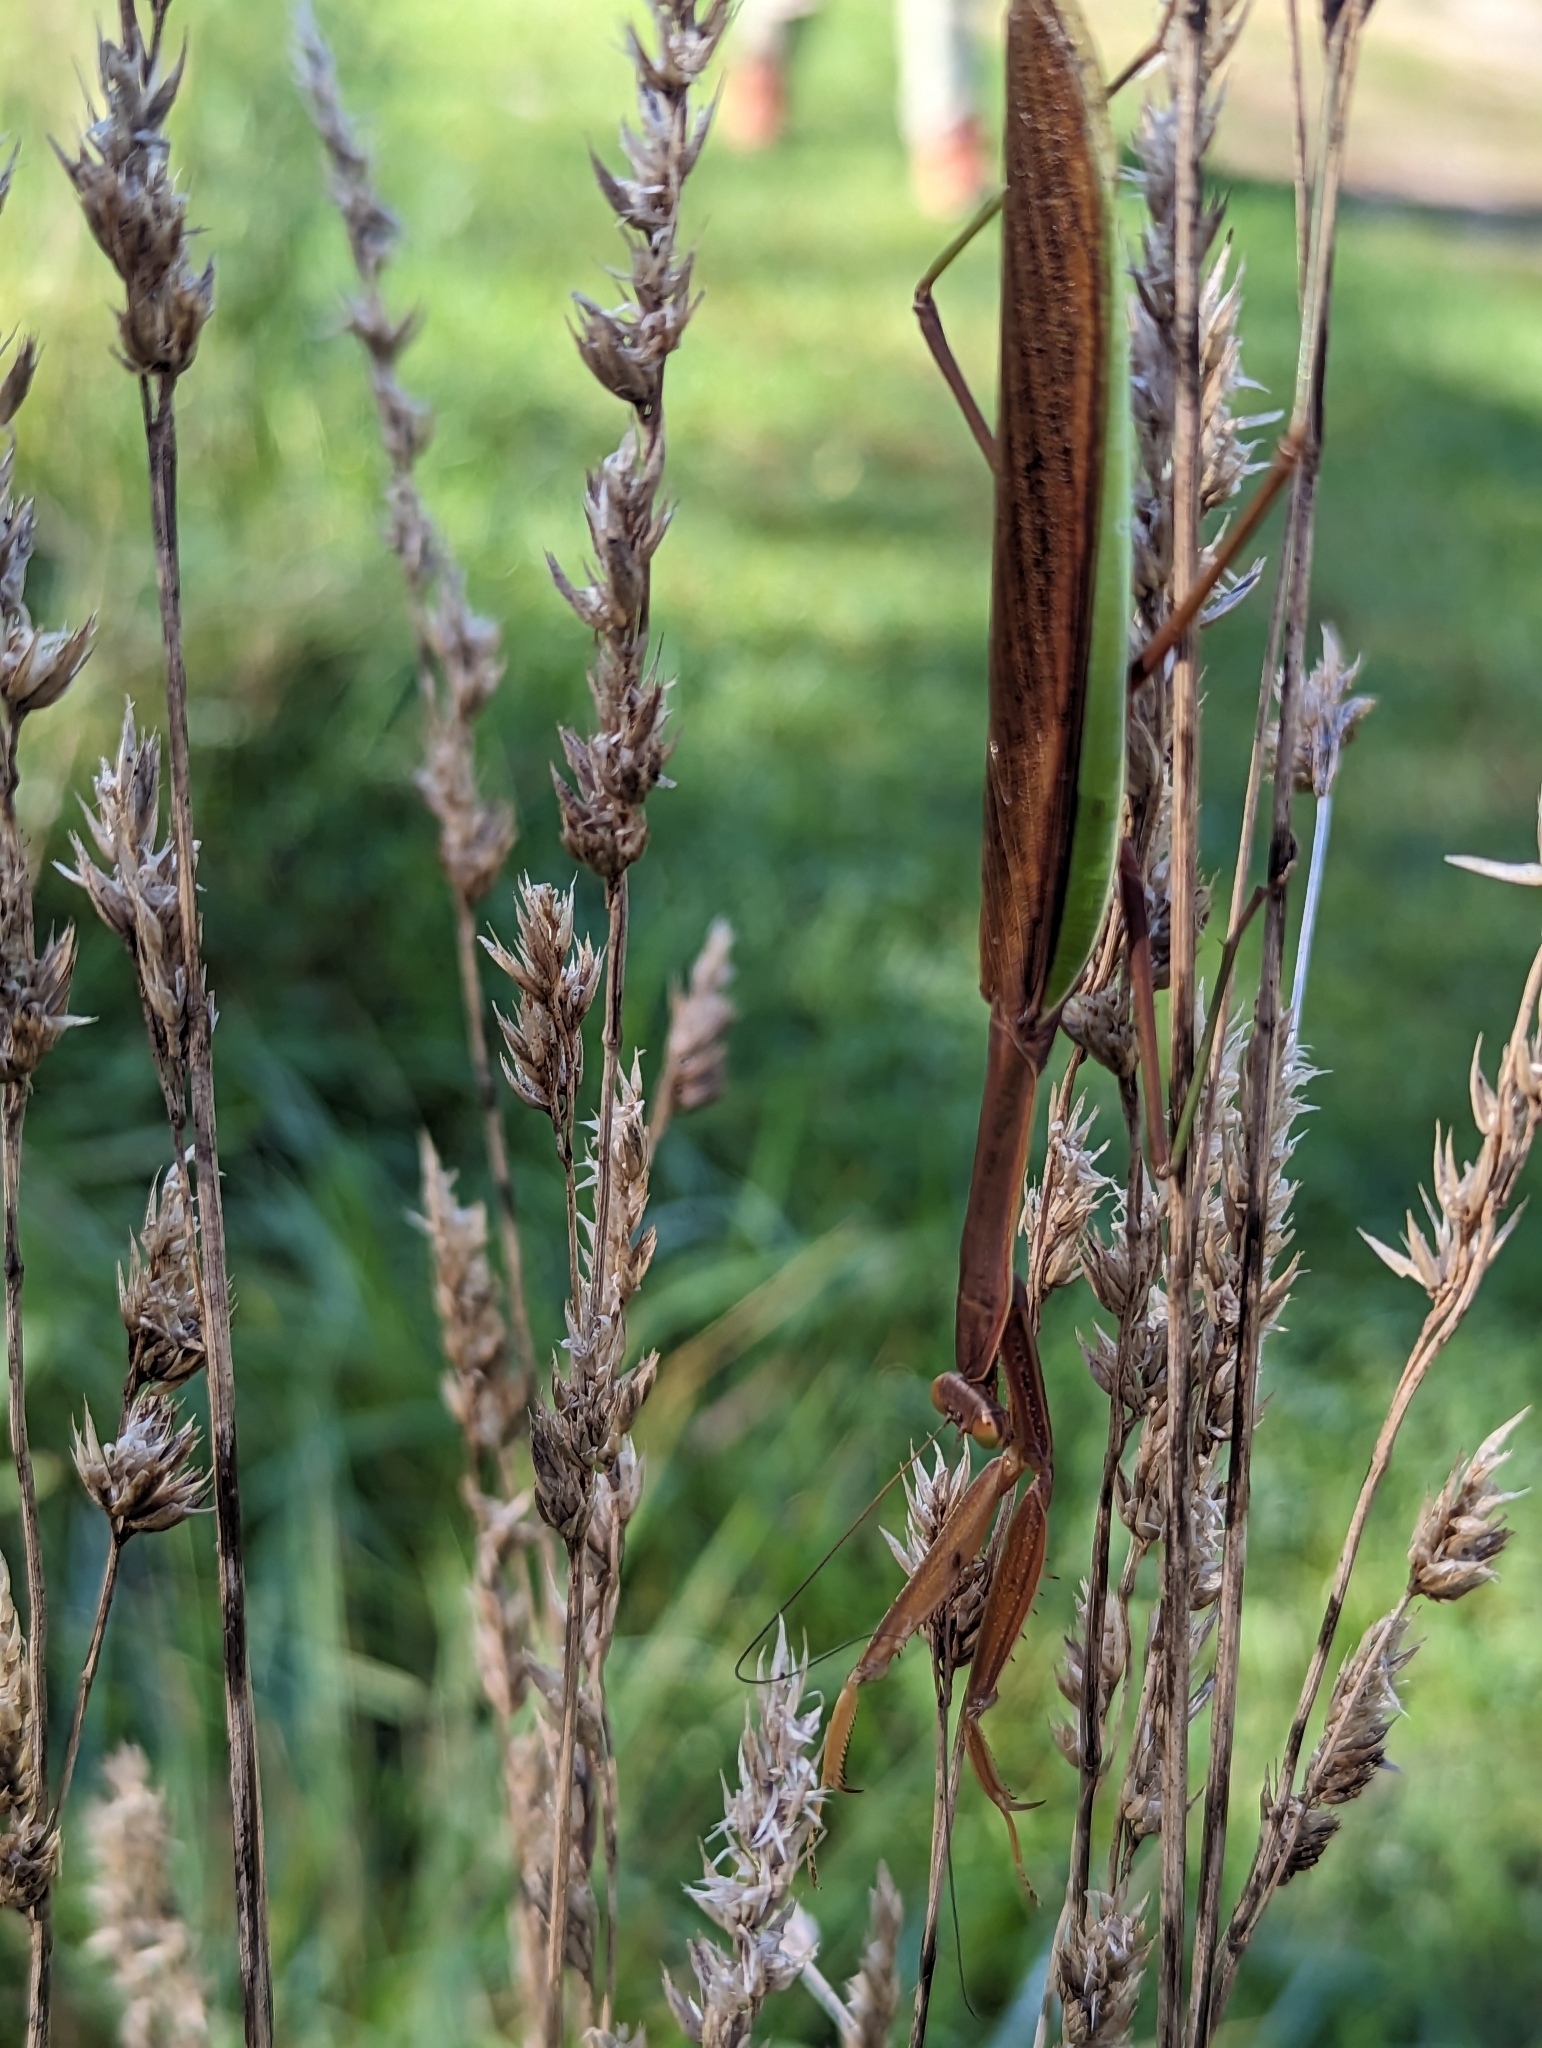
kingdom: Animalia
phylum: Arthropoda
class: Insecta
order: Mantodea
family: Mantidae
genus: Tenodera
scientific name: Tenodera sinensis
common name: Chinese mantis
